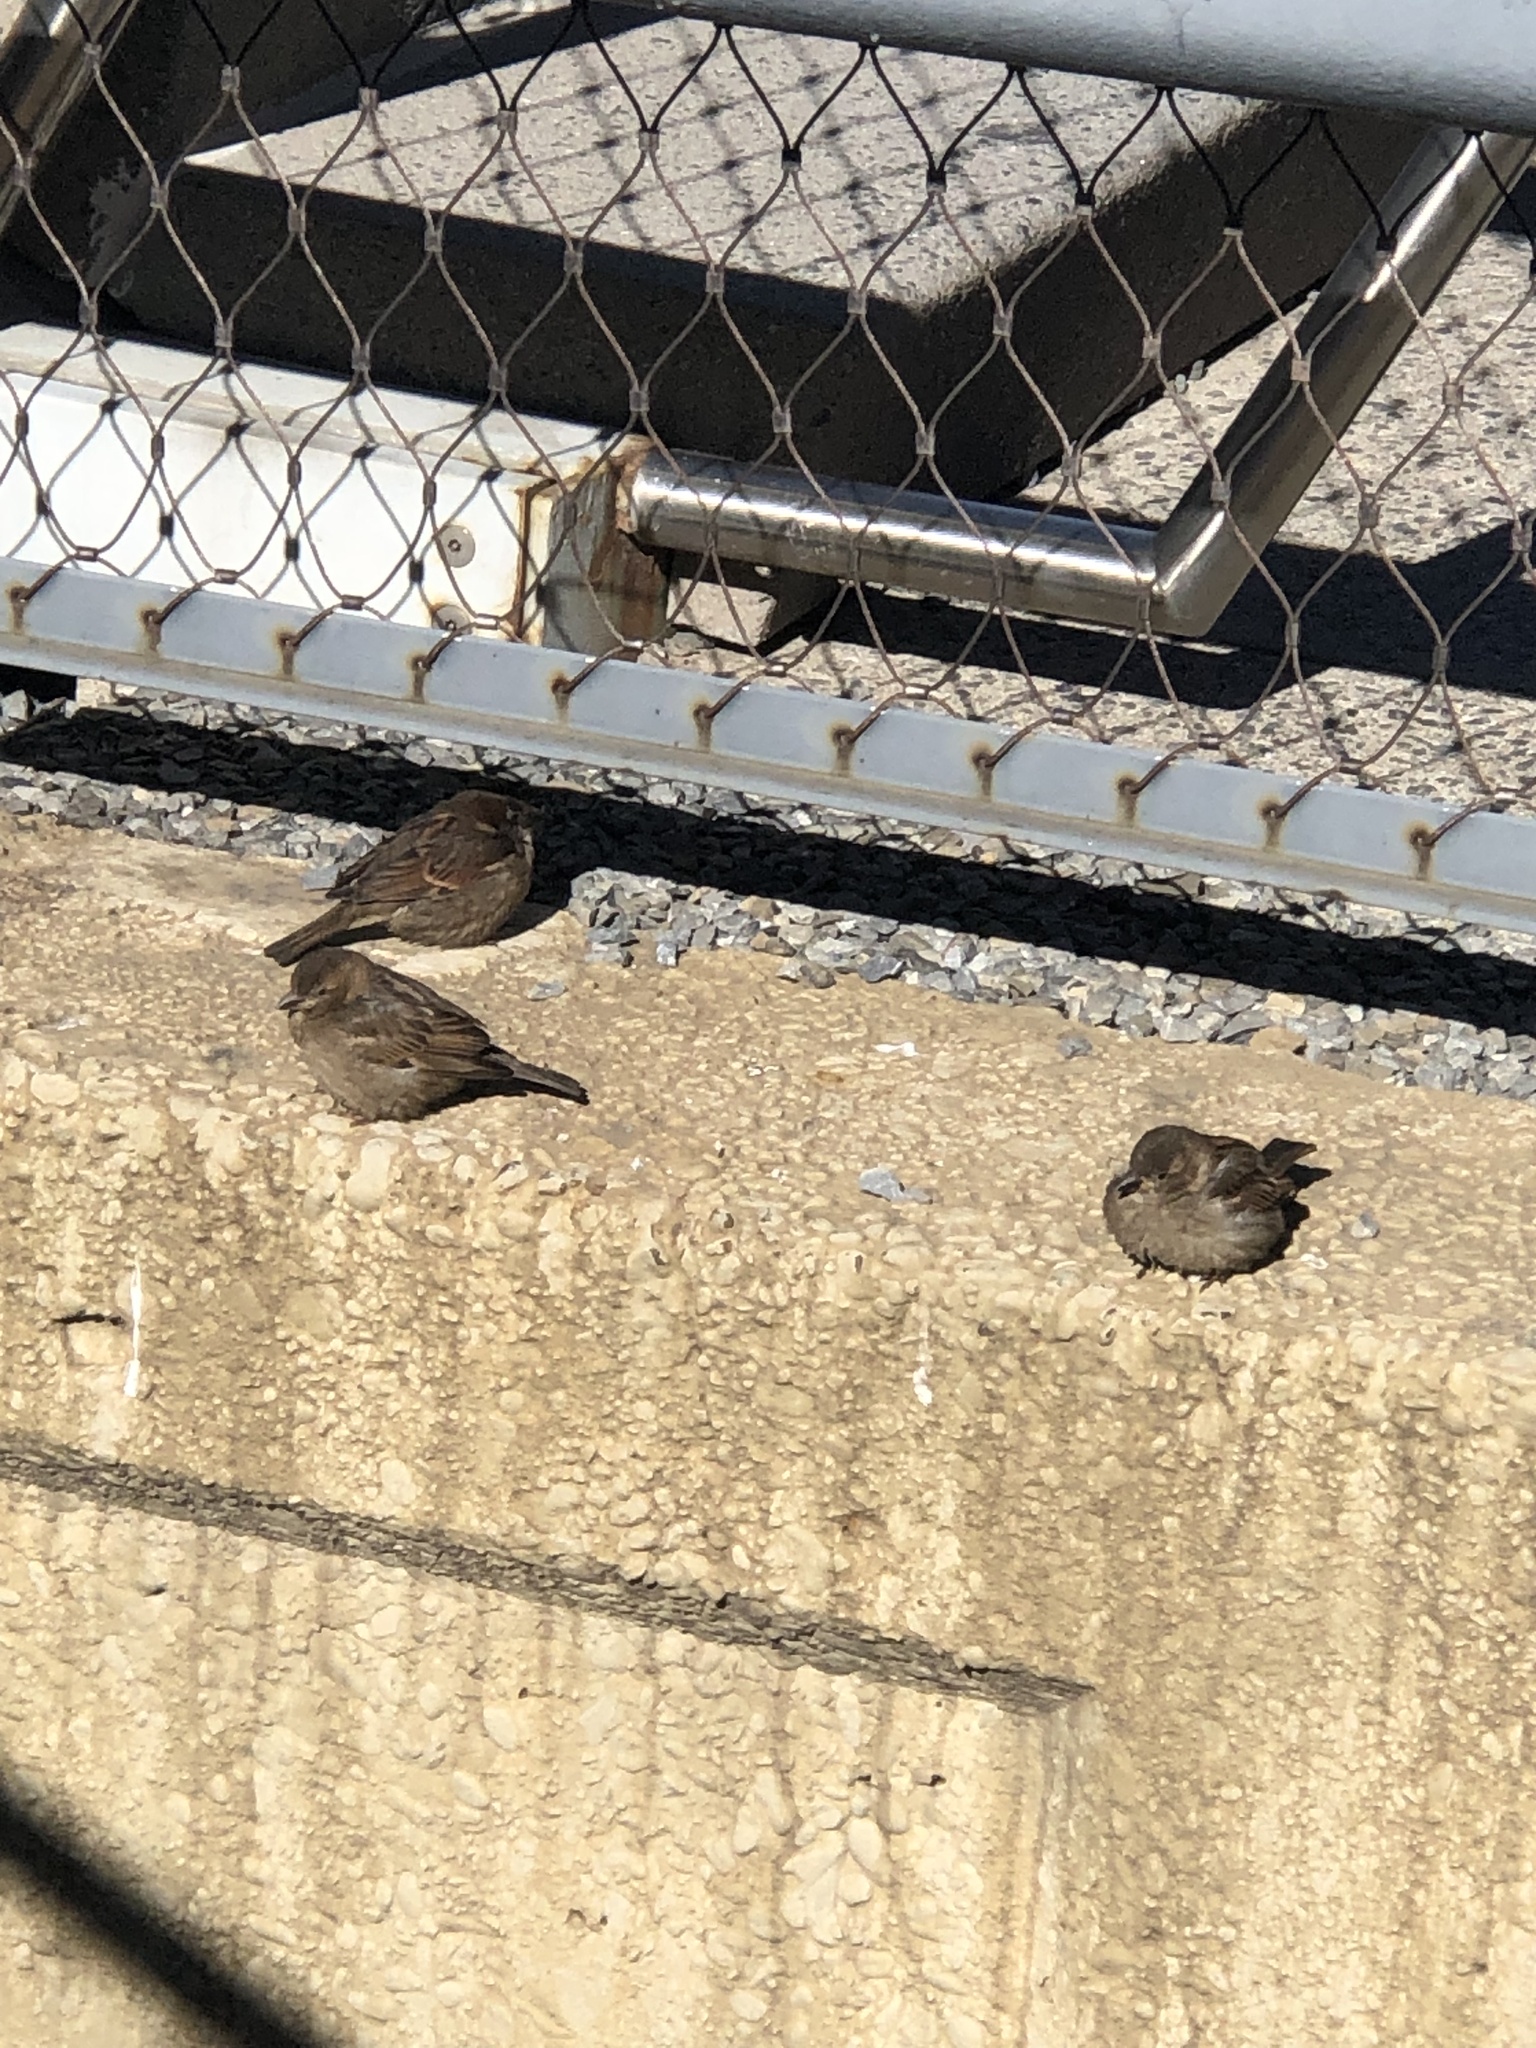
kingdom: Animalia
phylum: Chordata
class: Aves
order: Passeriformes
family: Passeridae
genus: Passer
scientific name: Passer domesticus
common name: House sparrow
